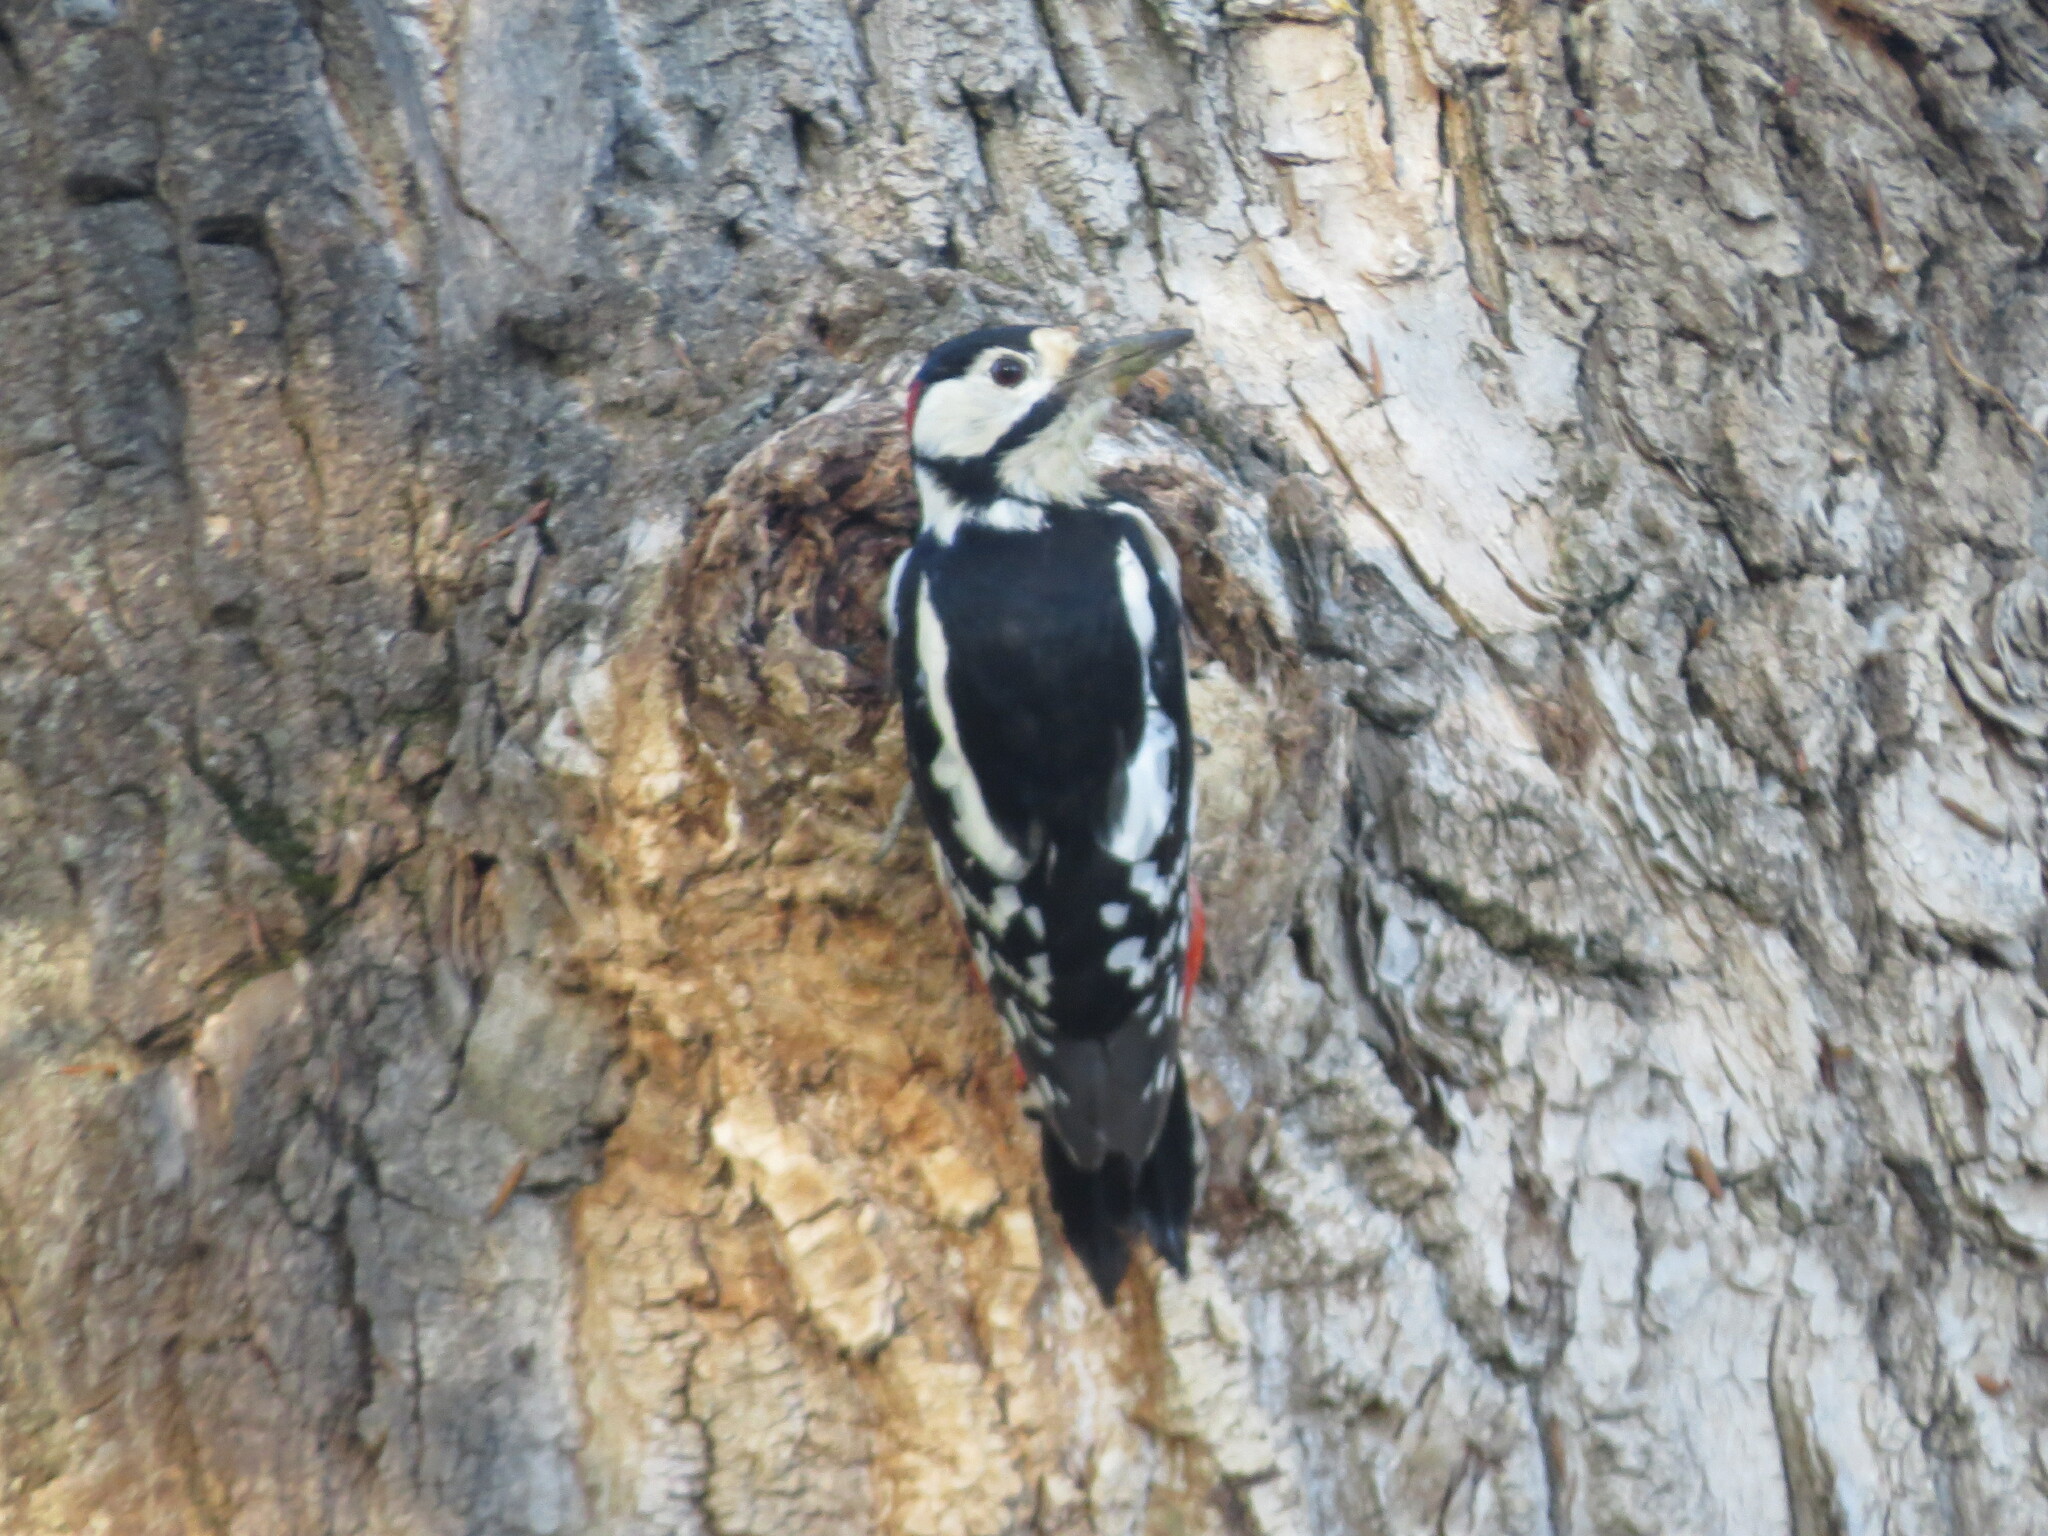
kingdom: Animalia
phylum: Chordata
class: Aves
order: Piciformes
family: Picidae
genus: Dendrocopos
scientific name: Dendrocopos major
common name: Great spotted woodpecker
